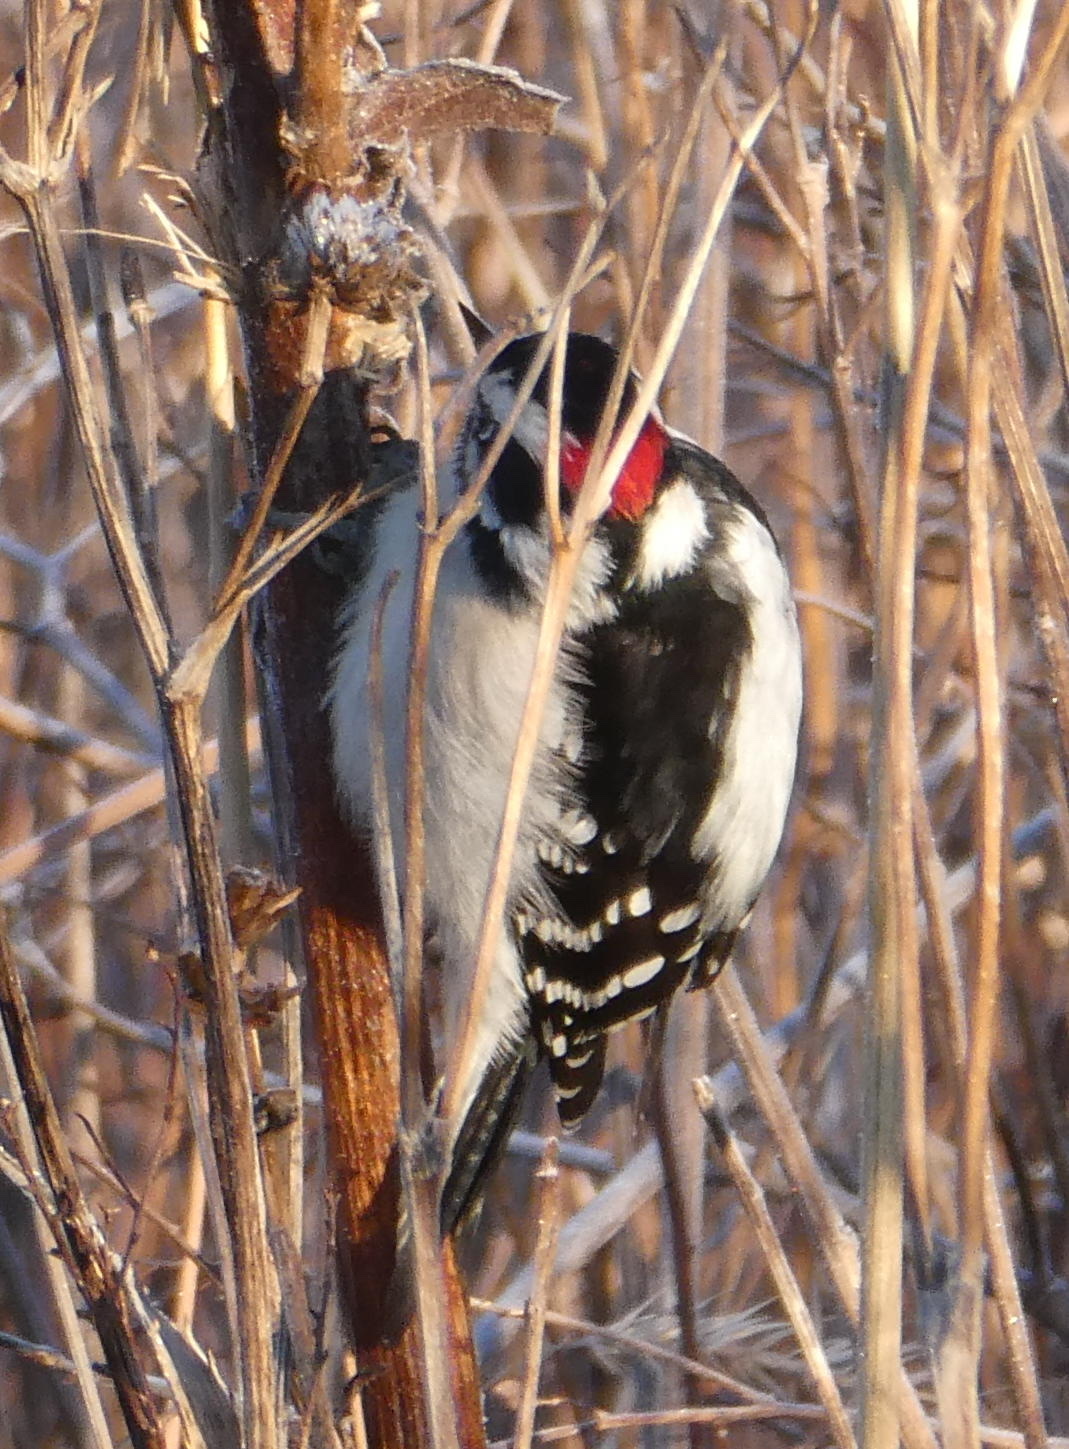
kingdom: Animalia
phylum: Chordata
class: Aves
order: Piciformes
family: Picidae
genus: Dryobates
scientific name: Dryobates pubescens
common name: Downy woodpecker
